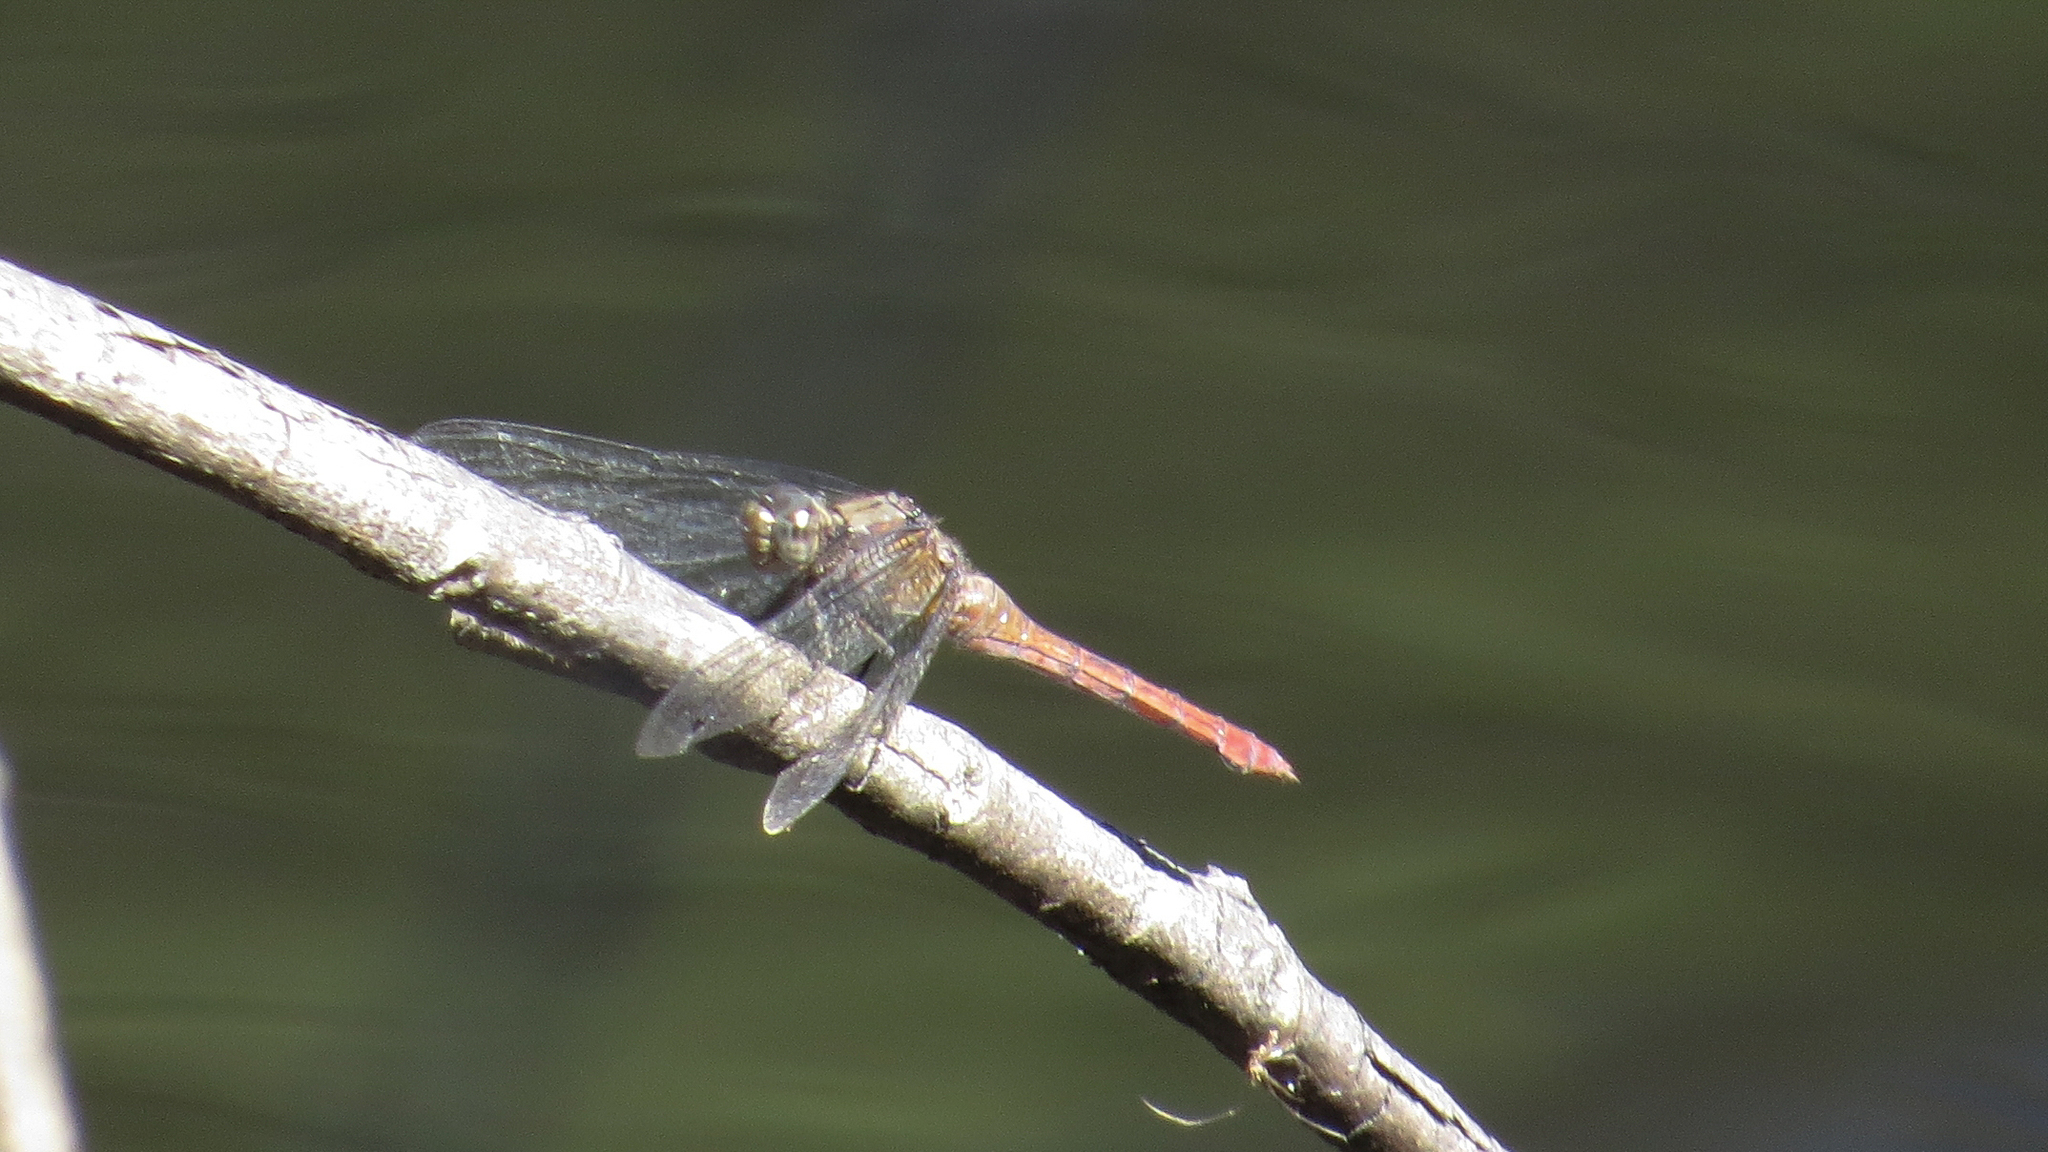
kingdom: Animalia
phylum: Arthropoda
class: Insecta
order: Odonata
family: Libellulidae
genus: Orthetrum
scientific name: Orthetrum villosovittatum
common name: Firery skimmer
